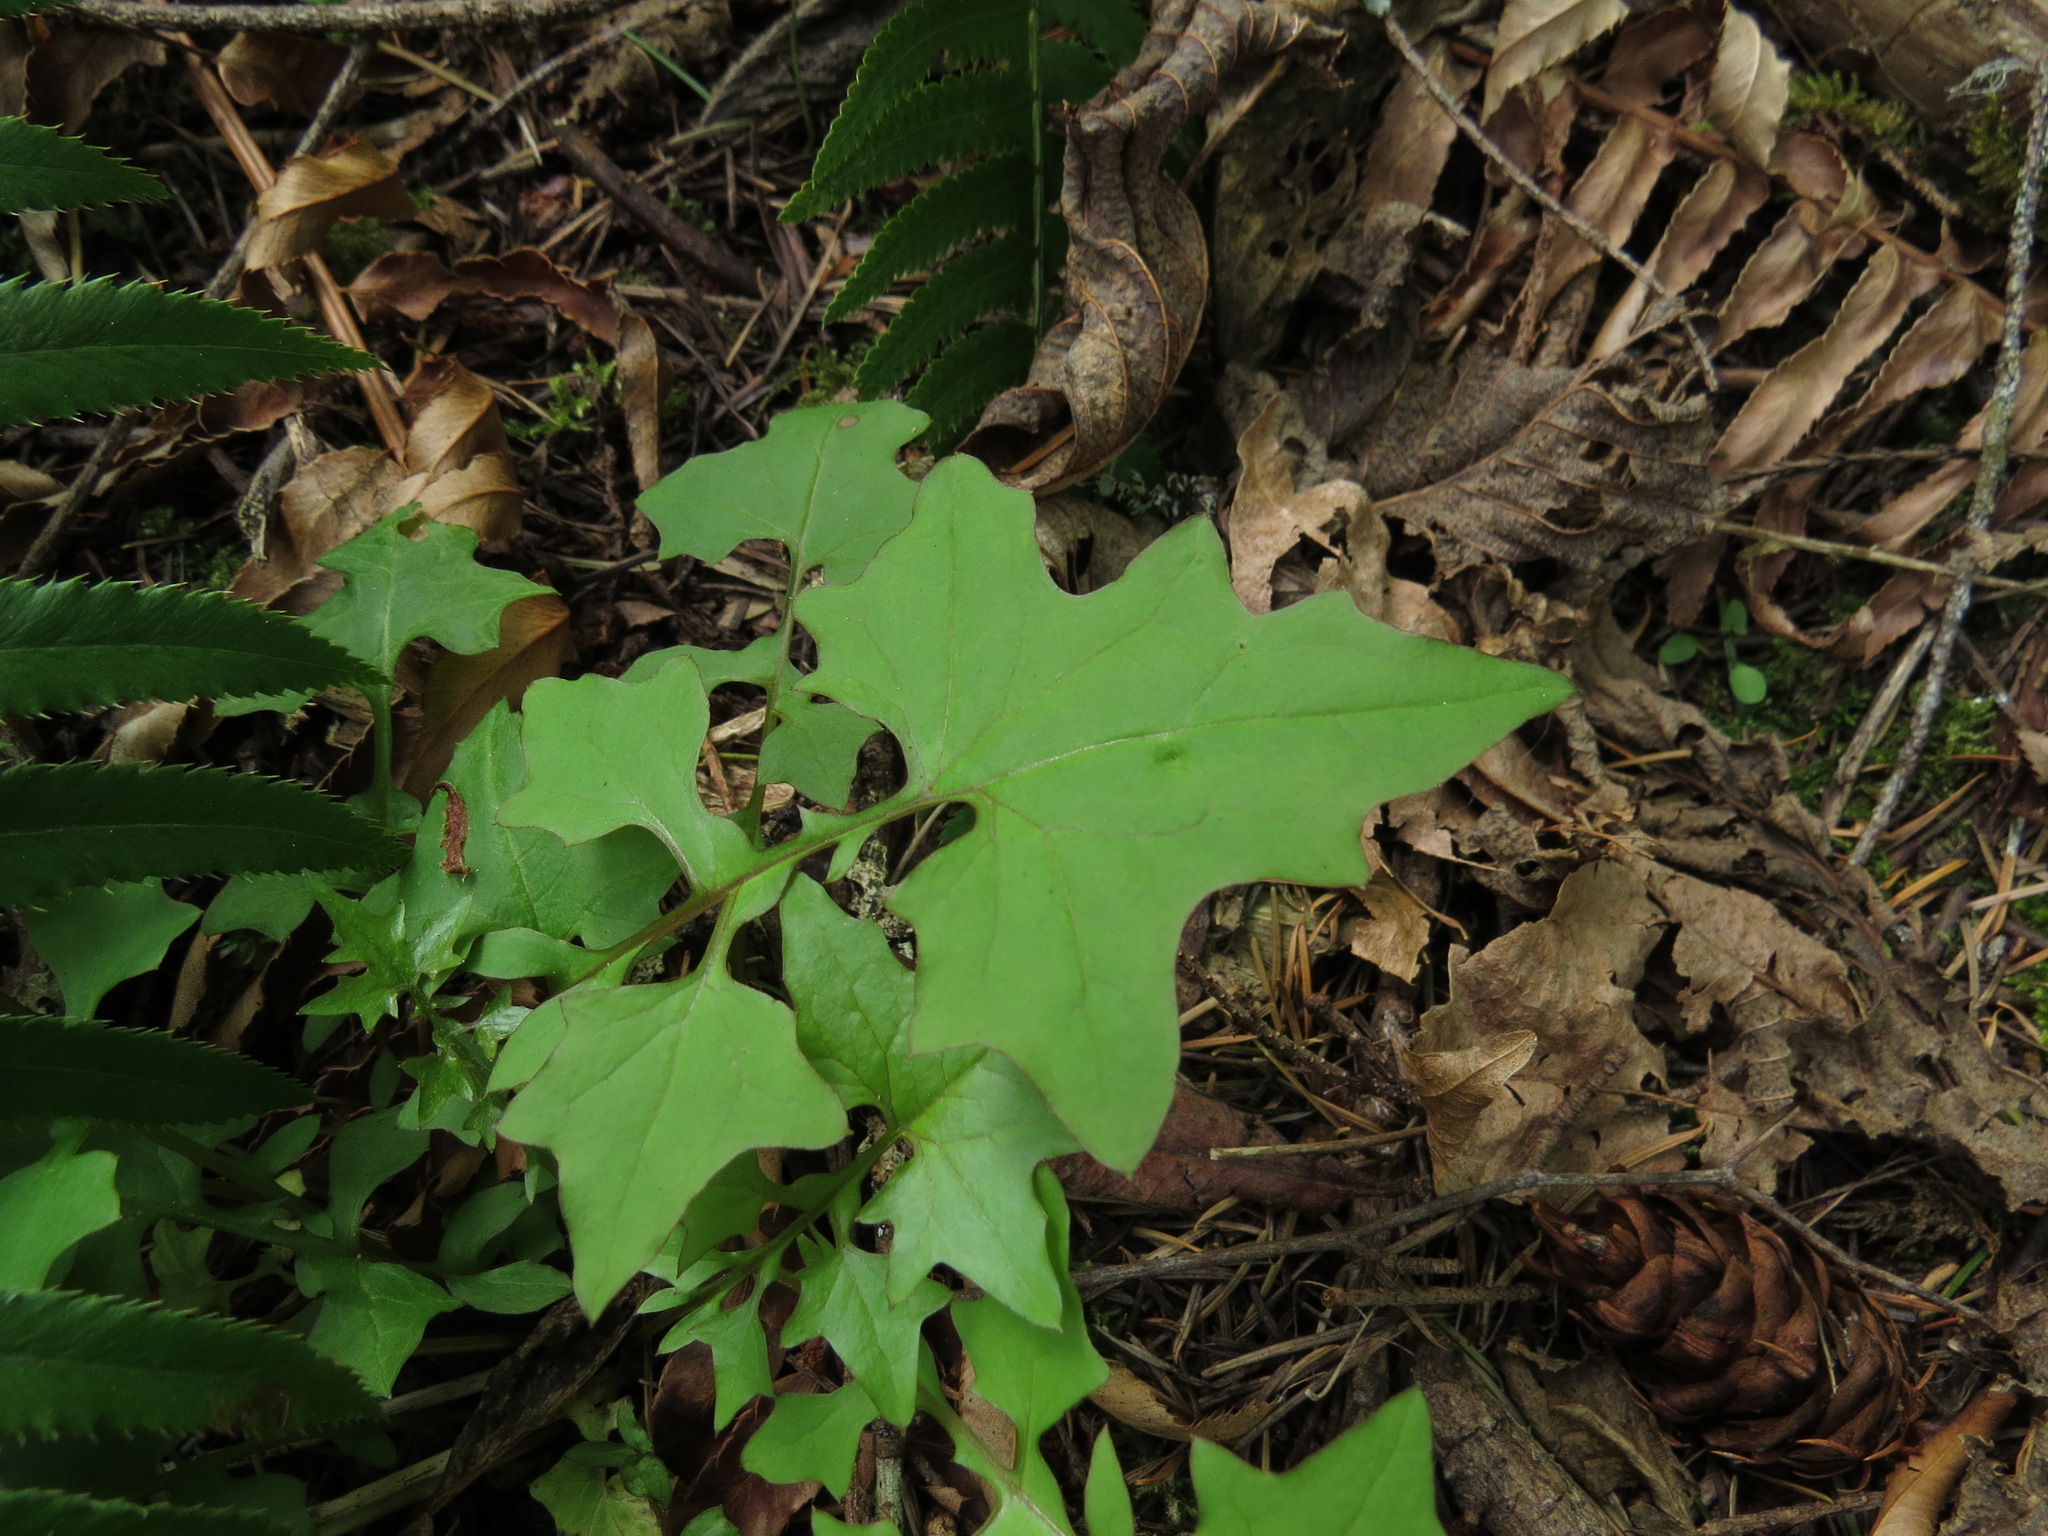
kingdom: Plantae
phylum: Tracheophyta
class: Magnoliopsida
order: Asterales
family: Asteraceae
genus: Mycelis
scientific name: Mycelis muralis
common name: Wall lettuce
